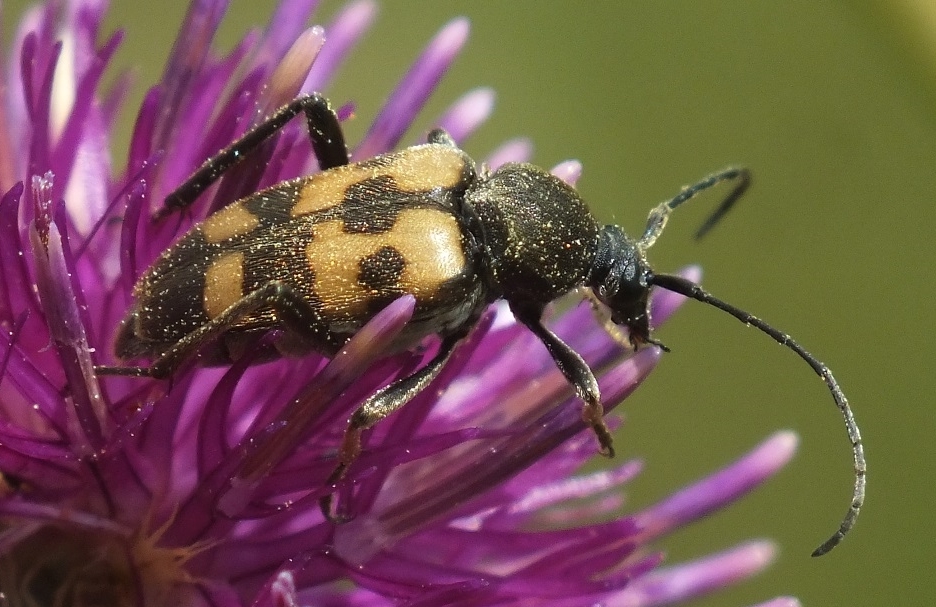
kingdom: Animalia
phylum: Arthropoda
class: Insecta
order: Coleoptera
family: Cerambycidae
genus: Pachytodes
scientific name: Pachytodes
